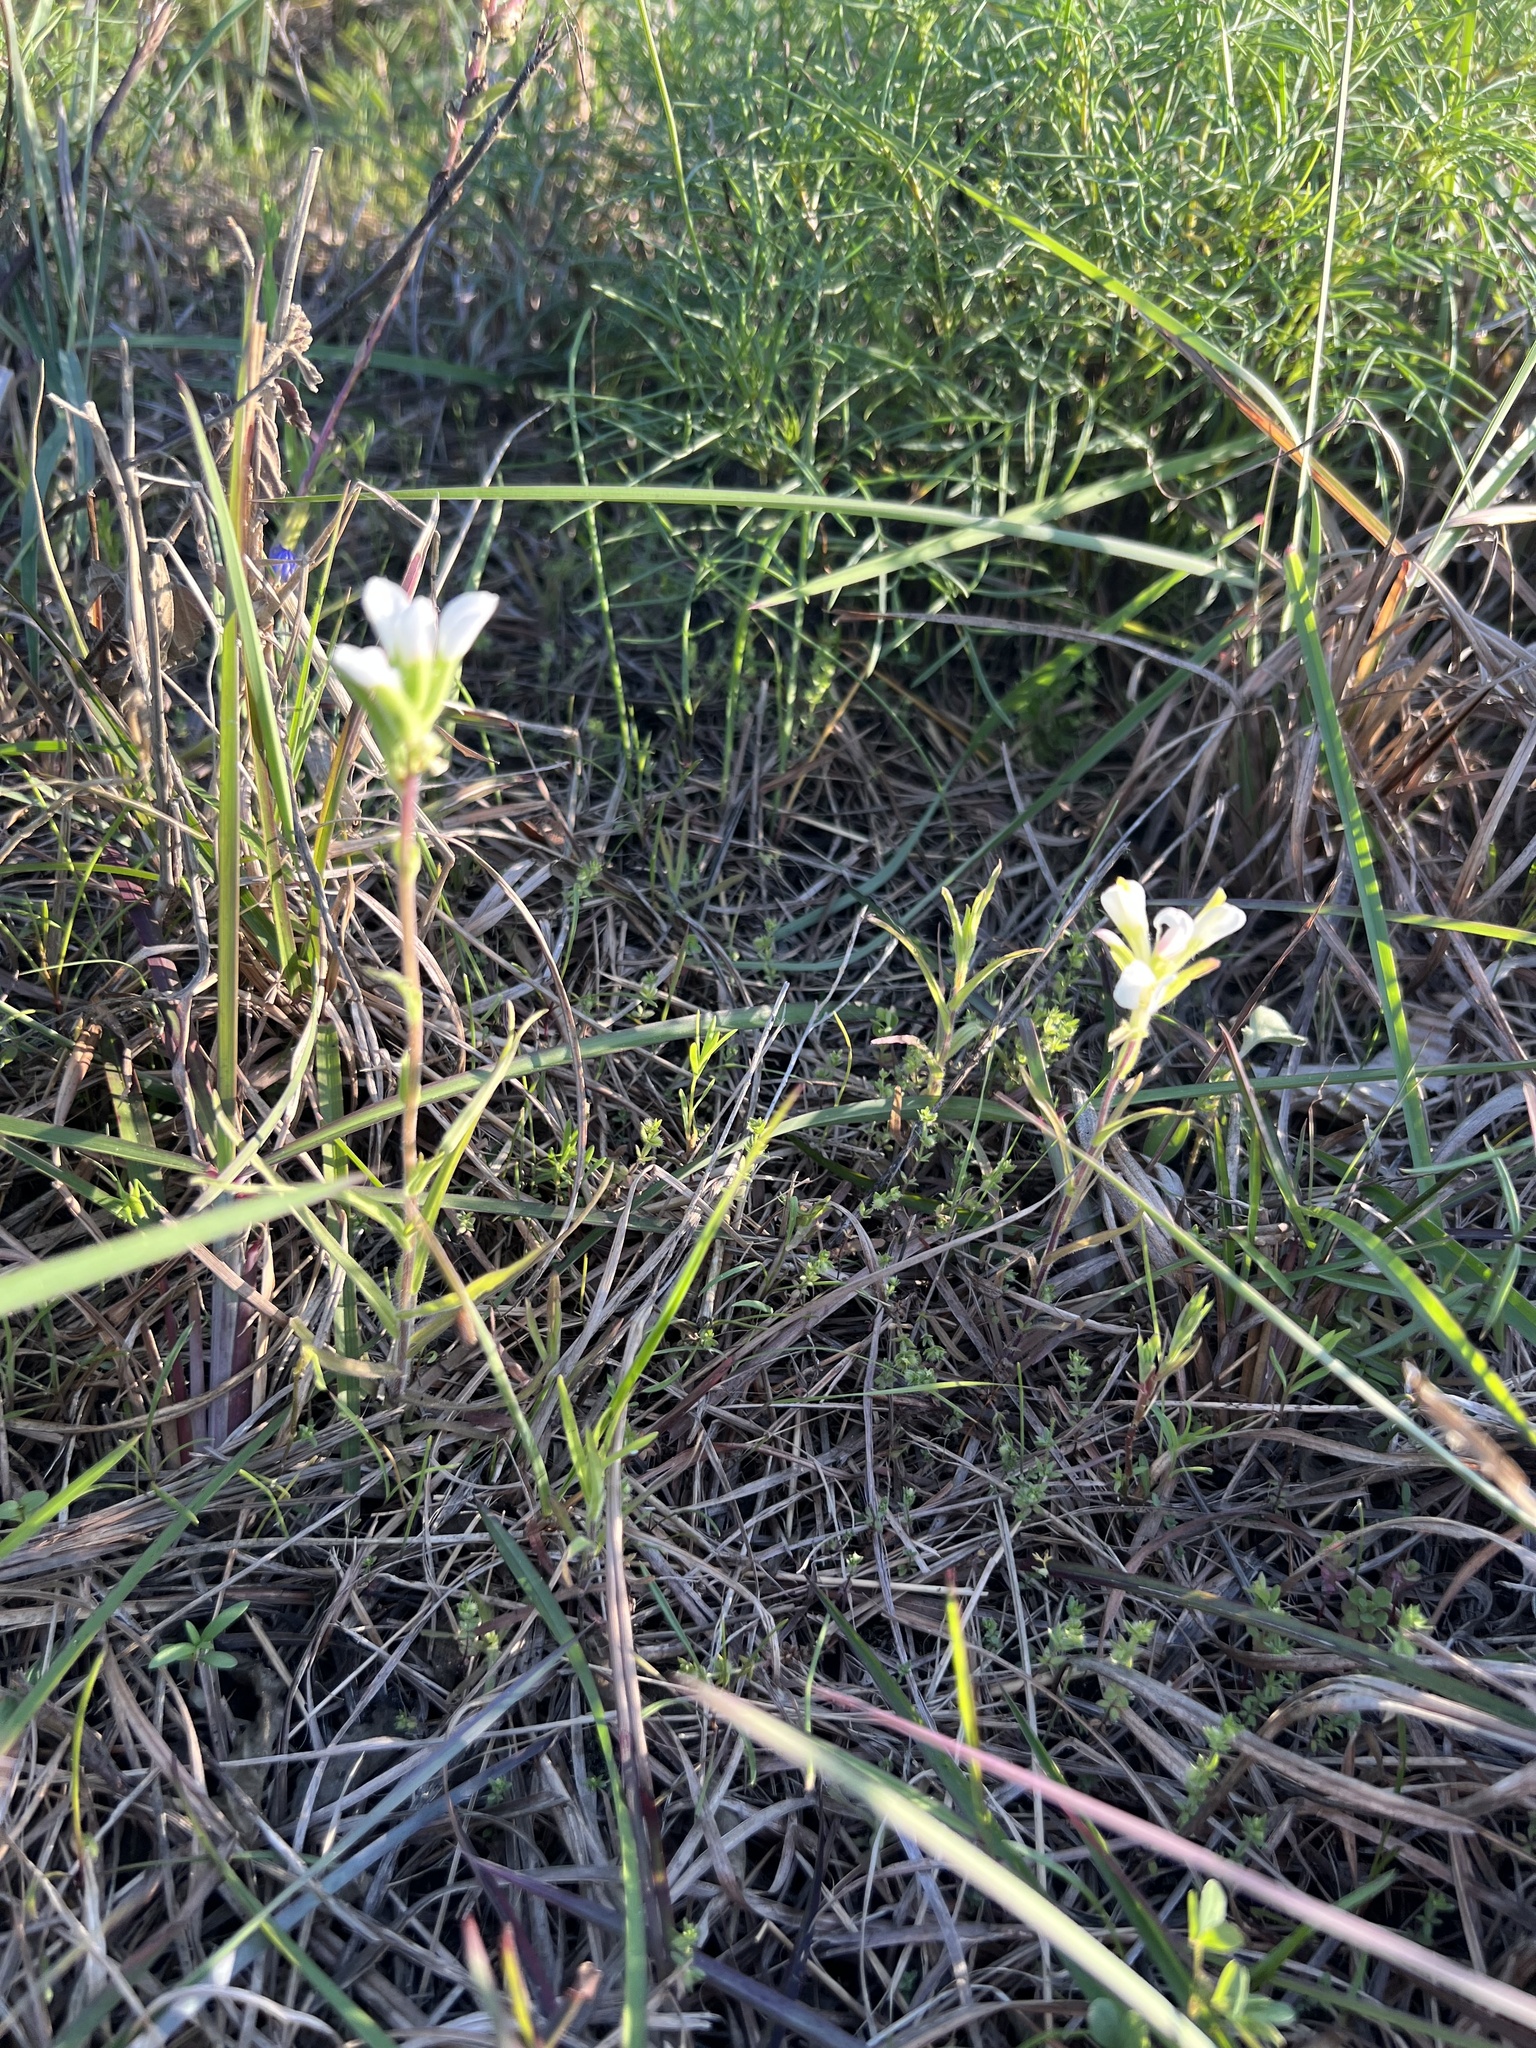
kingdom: Plantae
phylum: Tracheophyta
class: Magnoliopsida
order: Lamiales
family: Orobanchaceae
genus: Castilleja
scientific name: Castilleja halophila
